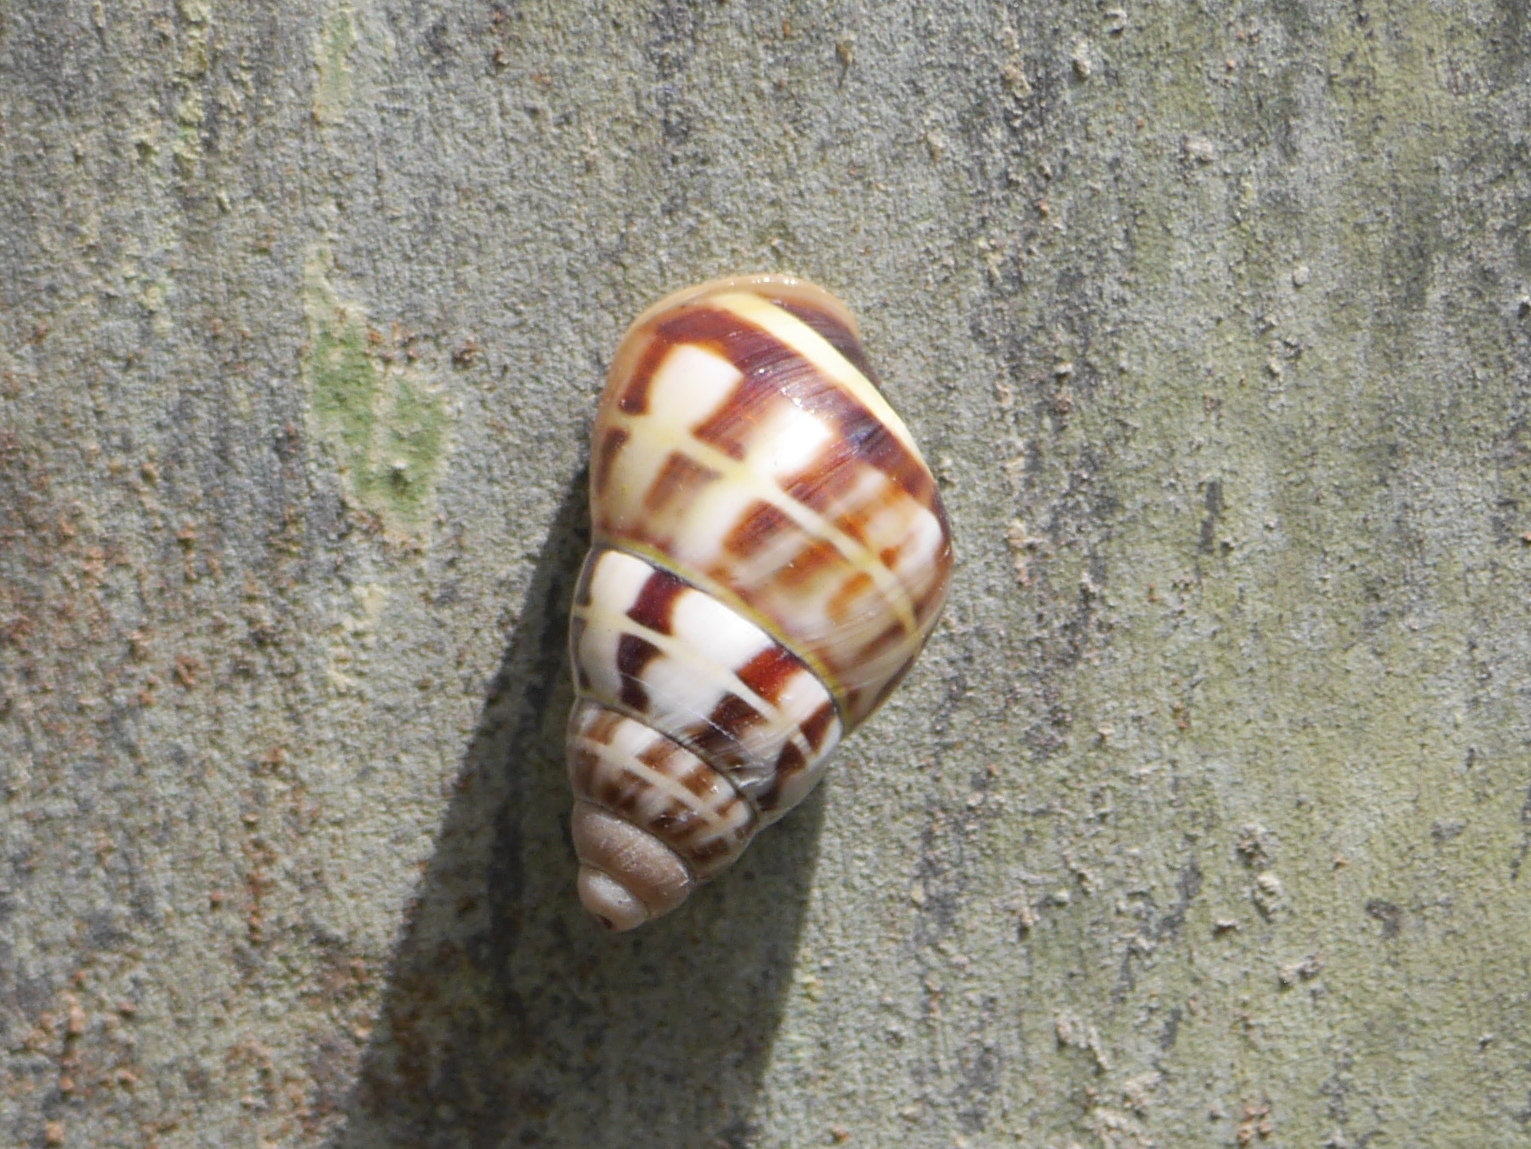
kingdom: Animalia
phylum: Mollusca
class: Gastropoda
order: Stylommatophora
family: Camaenidae
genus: Amphidromus
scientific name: Amphidromus porcellanus
